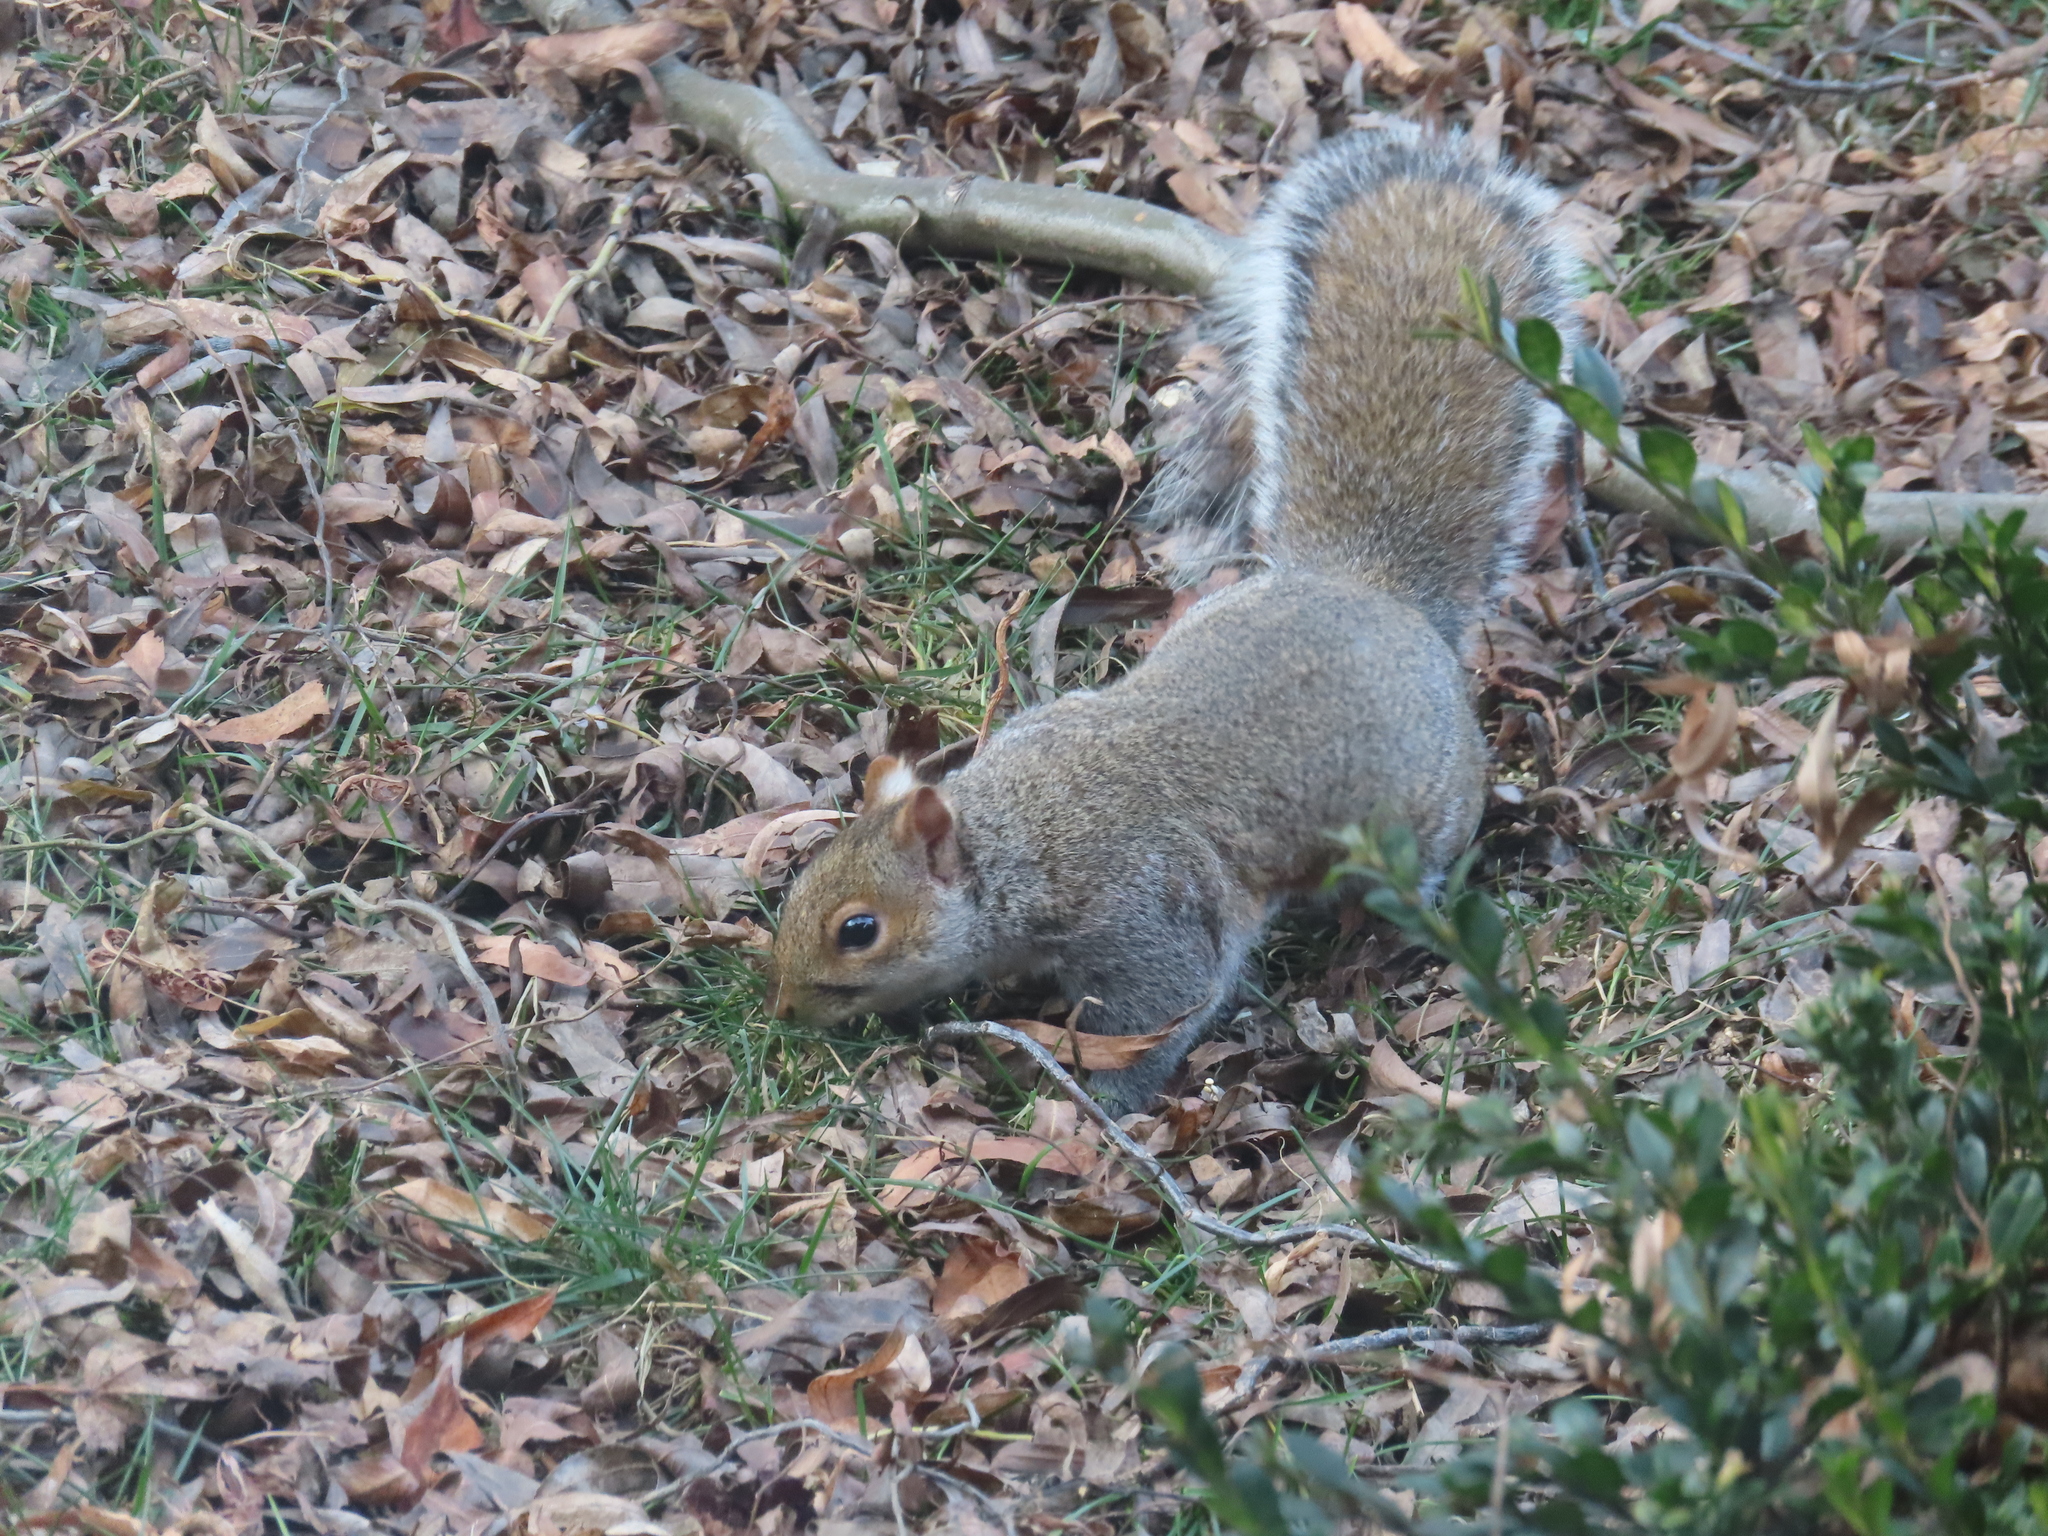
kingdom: Animalia
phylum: Chordata
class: Mammalia
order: Rodentia
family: Sciuridae
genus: Sciurus
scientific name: Sciurus carolinensis
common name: Eastern gray squirrel
